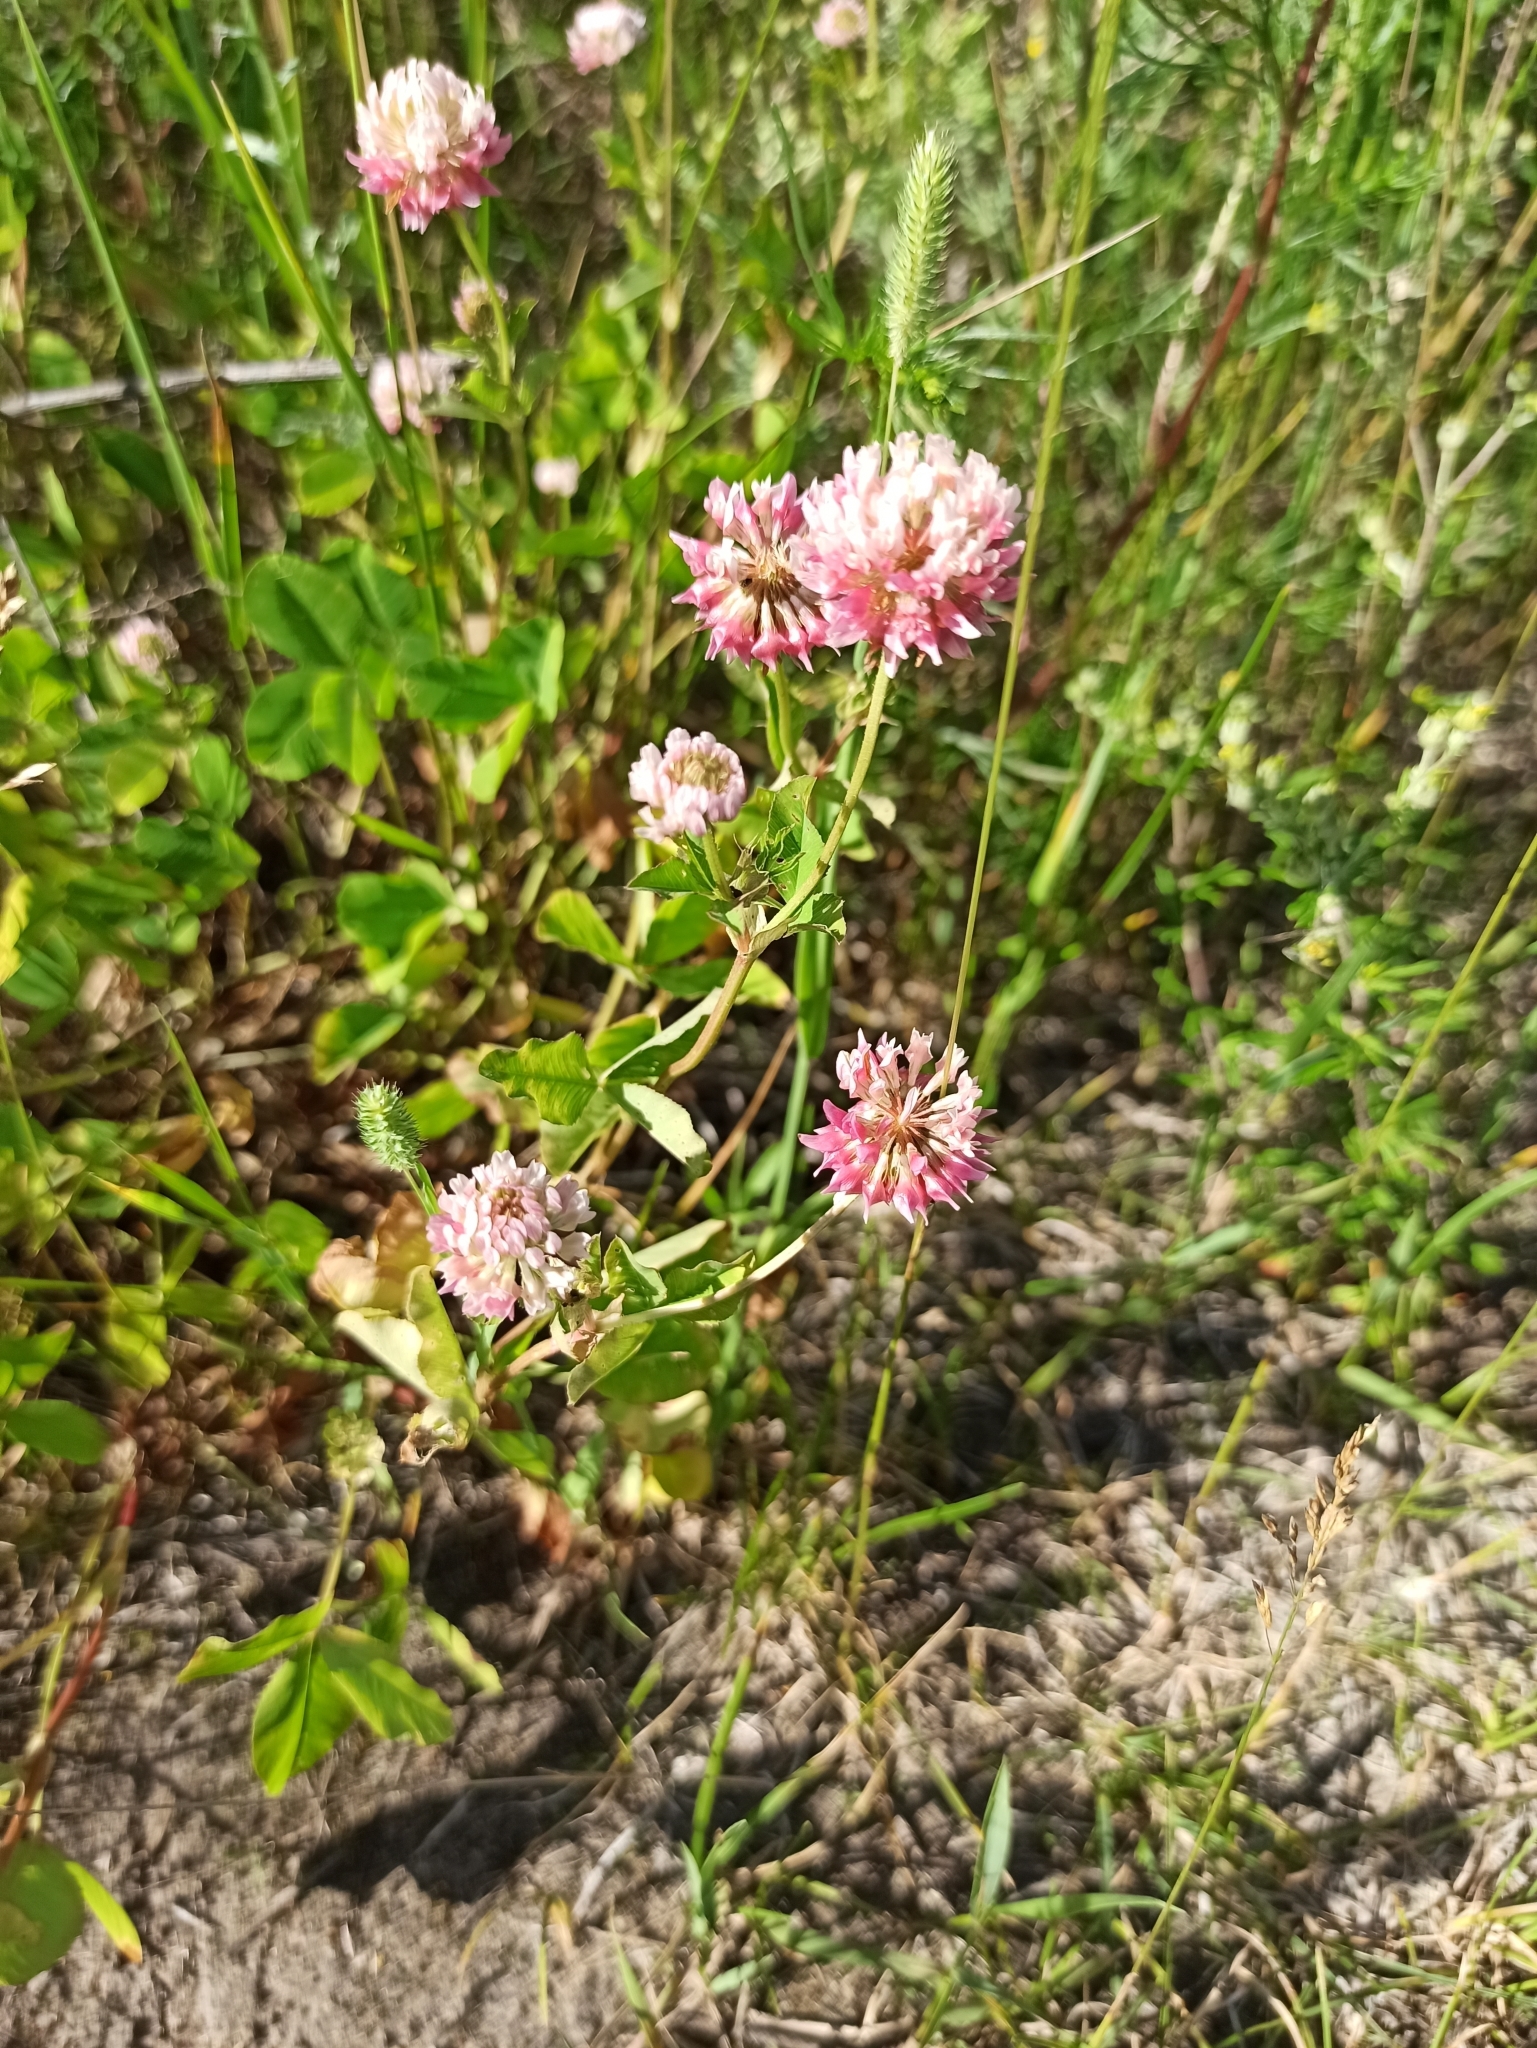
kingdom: Plantae
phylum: Tracheophyta
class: Magnoliopsida
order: Fabales
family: Fabaceae
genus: Trifolium
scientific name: Trifolium hybridum
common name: Alsike clover
